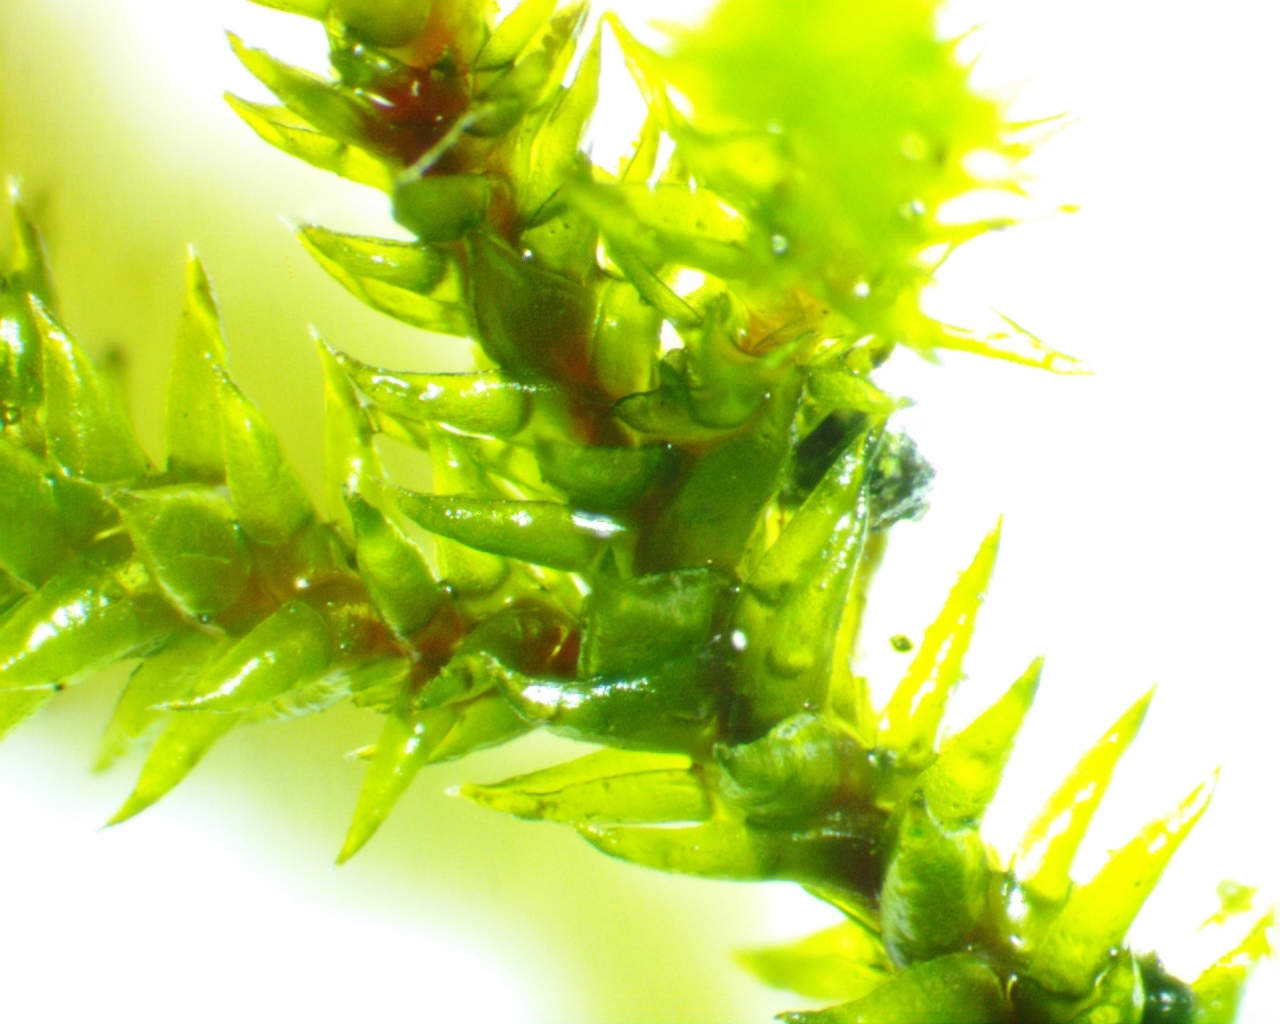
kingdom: Plantae
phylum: Bryophyta
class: Bryopsida
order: Hedwigiales
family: Hedwigiaceae
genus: Hedwigia
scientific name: Hedwigia ciliata
